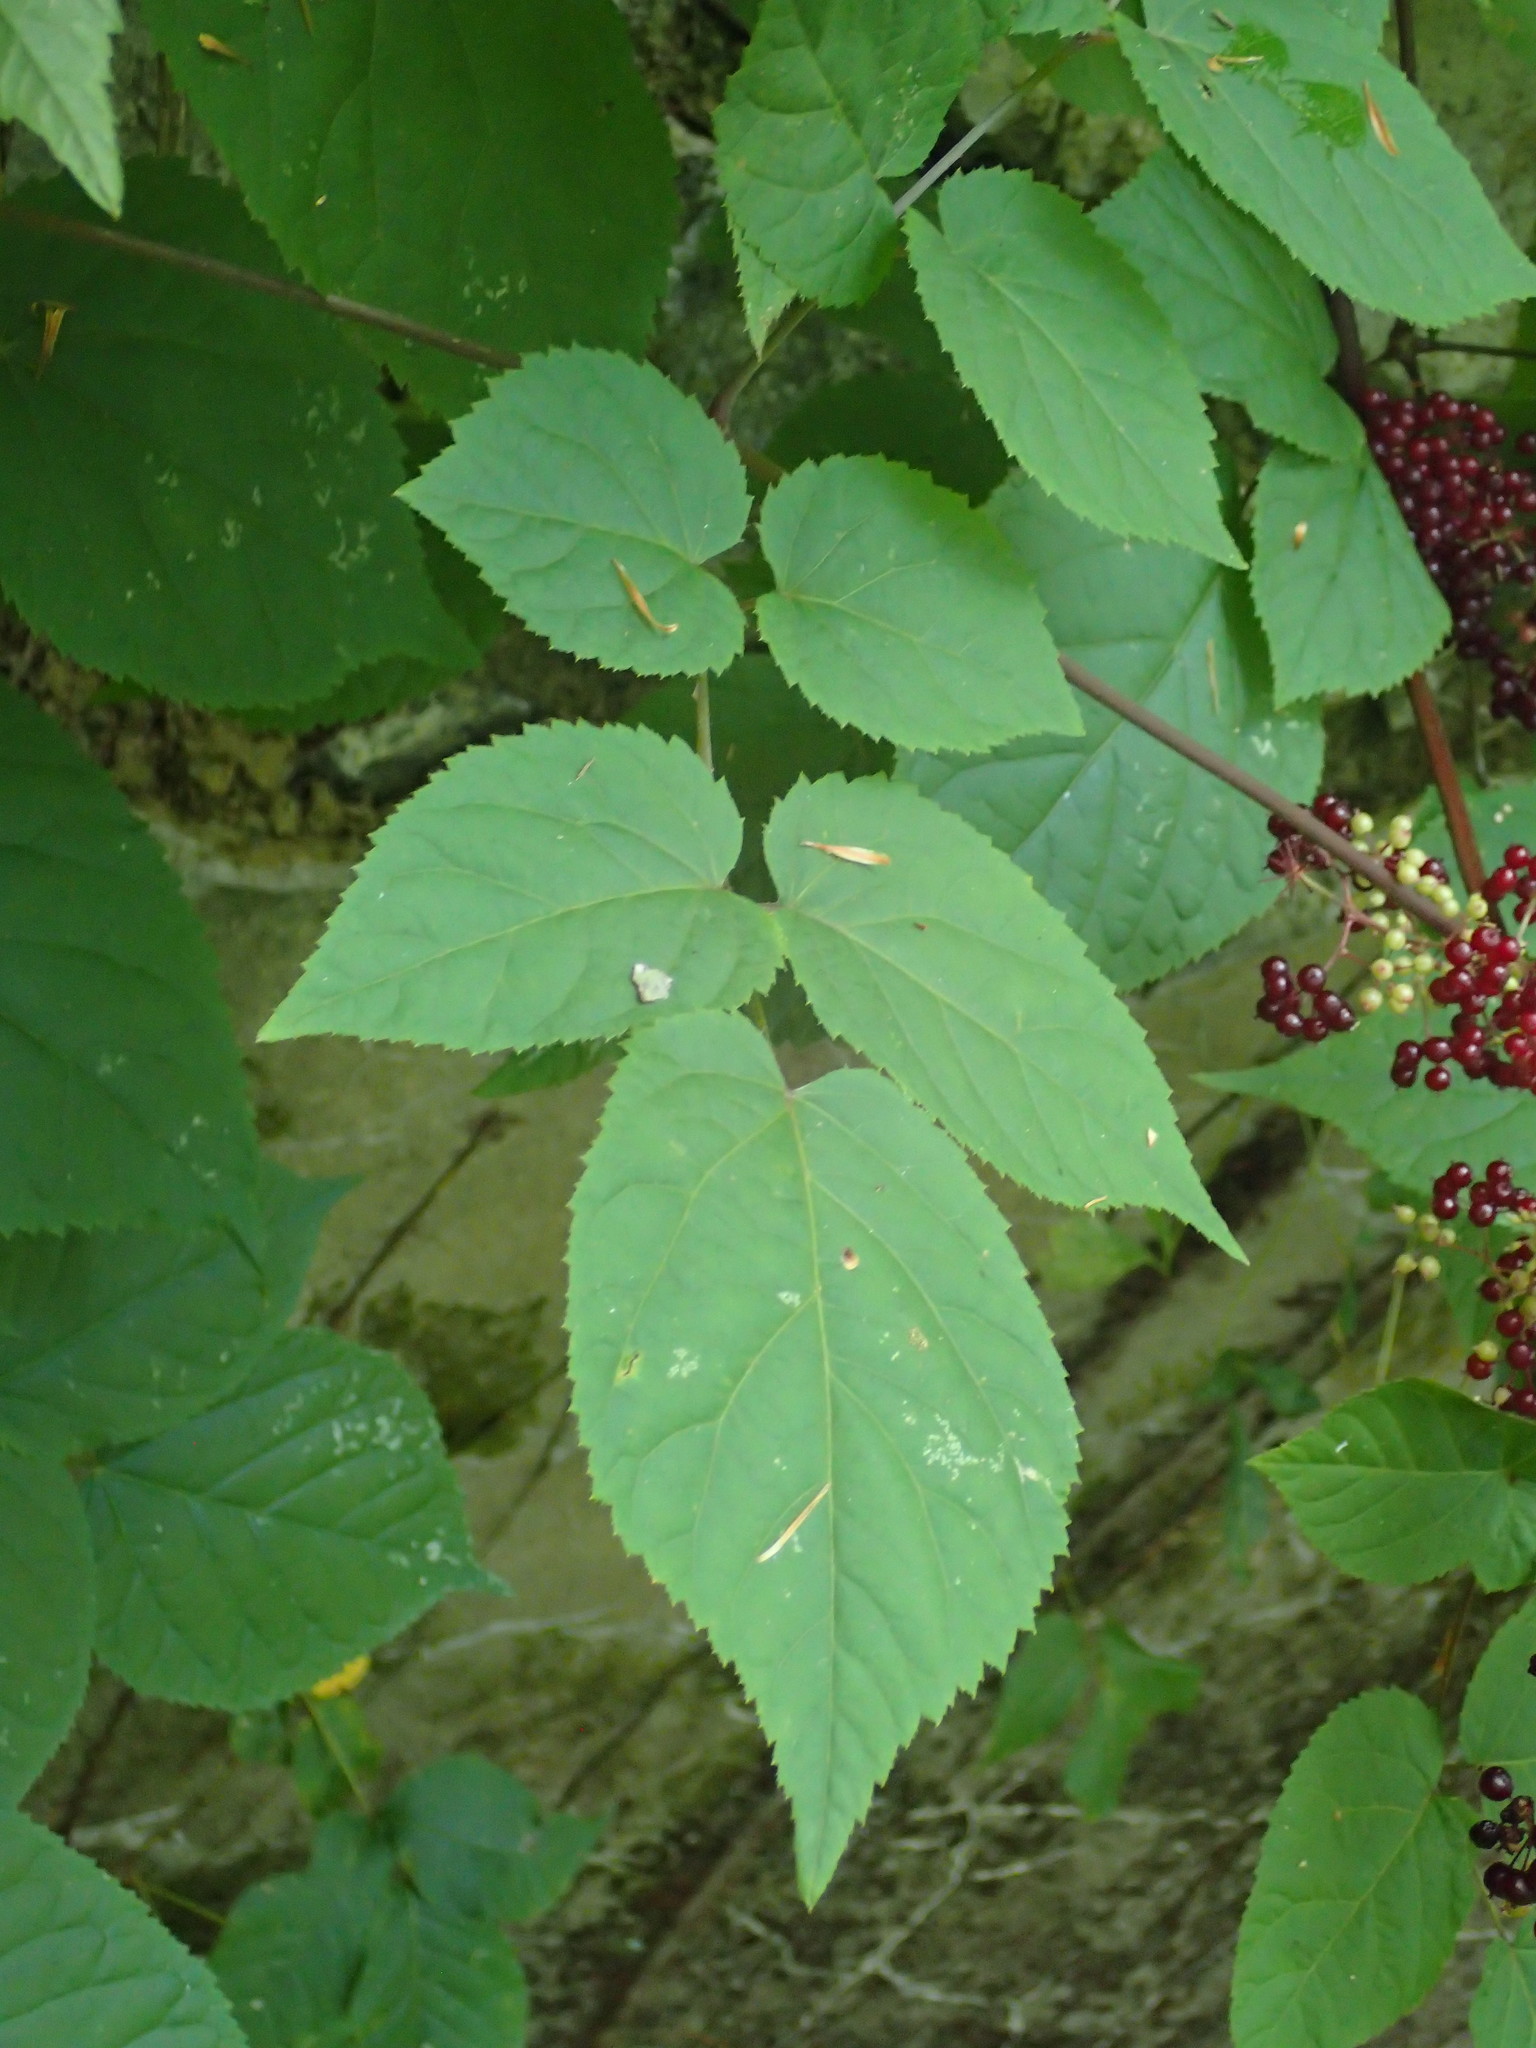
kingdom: Plantae
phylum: Tracheophyta
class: Magnoliopsida
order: Apiales
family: Araliaceae
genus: Aralia
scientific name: Aralia racemosa
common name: American-spikenard
